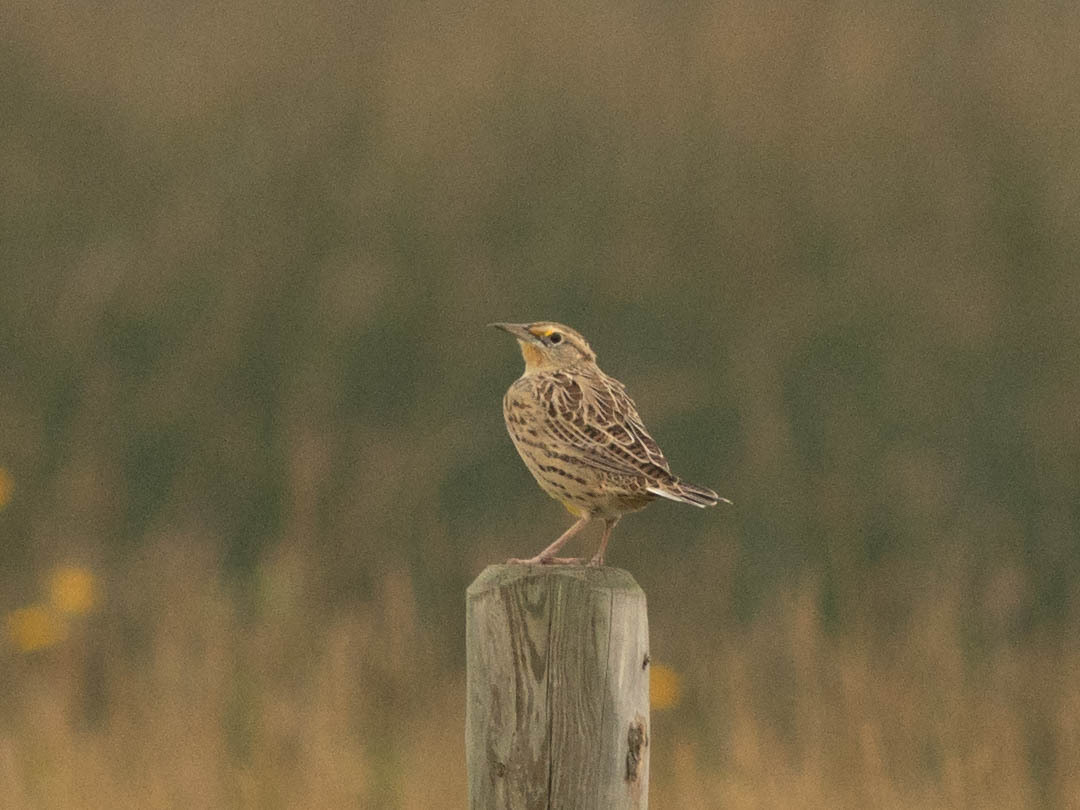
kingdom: Animalia
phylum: Chordata
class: Aves
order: Passeriformes
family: Icteridae
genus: Sturnella
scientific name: Sturnella neglecta
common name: Western meadowlark
